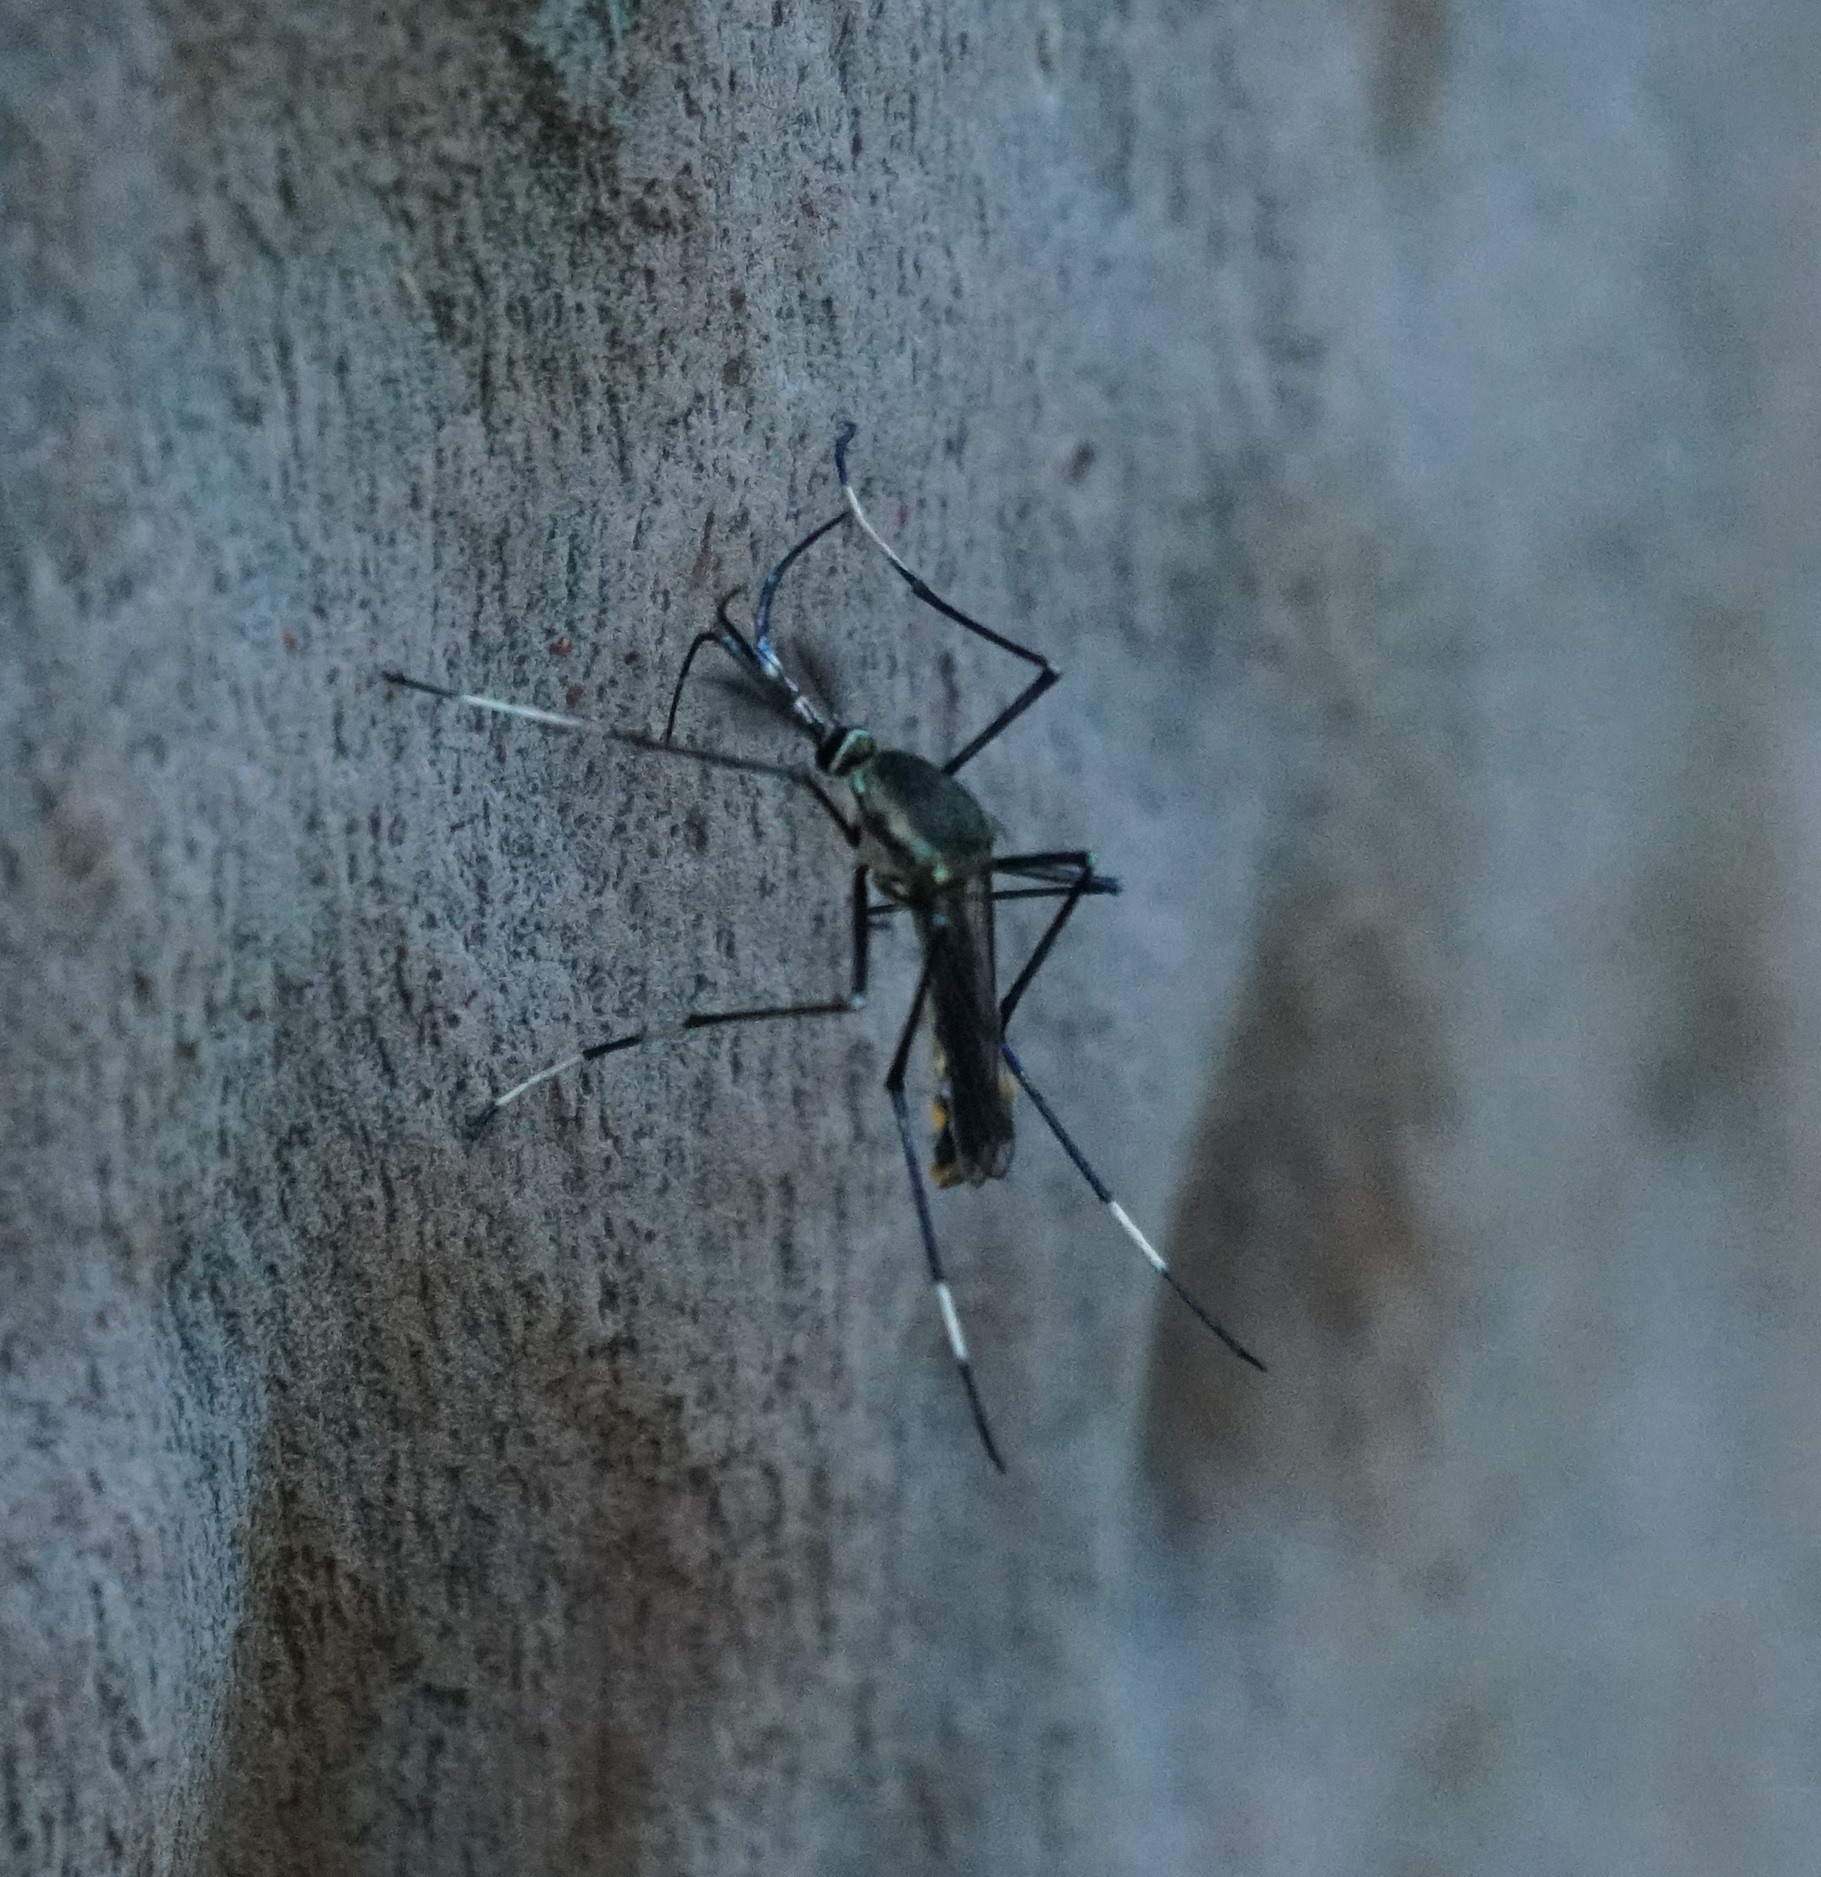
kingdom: Animalia
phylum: Arthropoda
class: Insecta
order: Diptera
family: Culicidae
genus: Toxorhynchites
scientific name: Toxorhynchites speciosus
